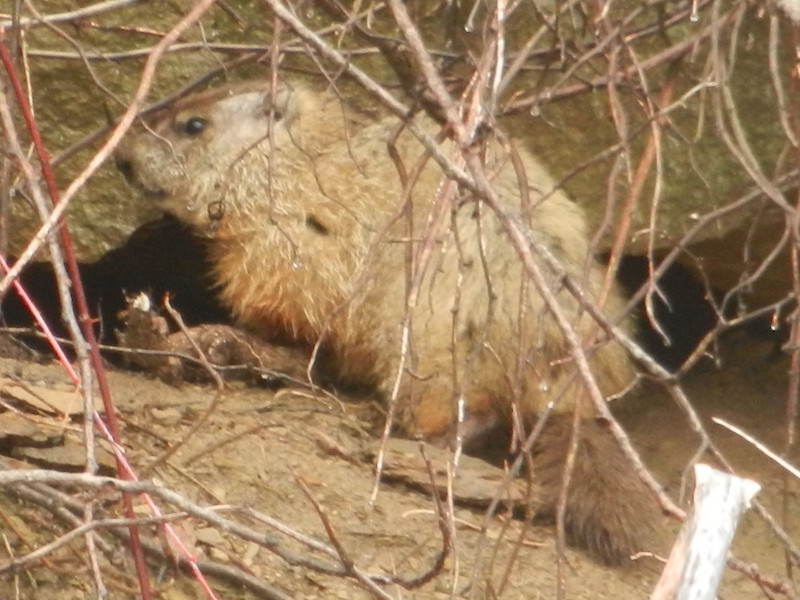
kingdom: Animalia
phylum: Chordata
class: Mammalia
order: Rodentia
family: Sciuridae
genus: Marmota
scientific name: Marmota monax
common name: Groundhog
